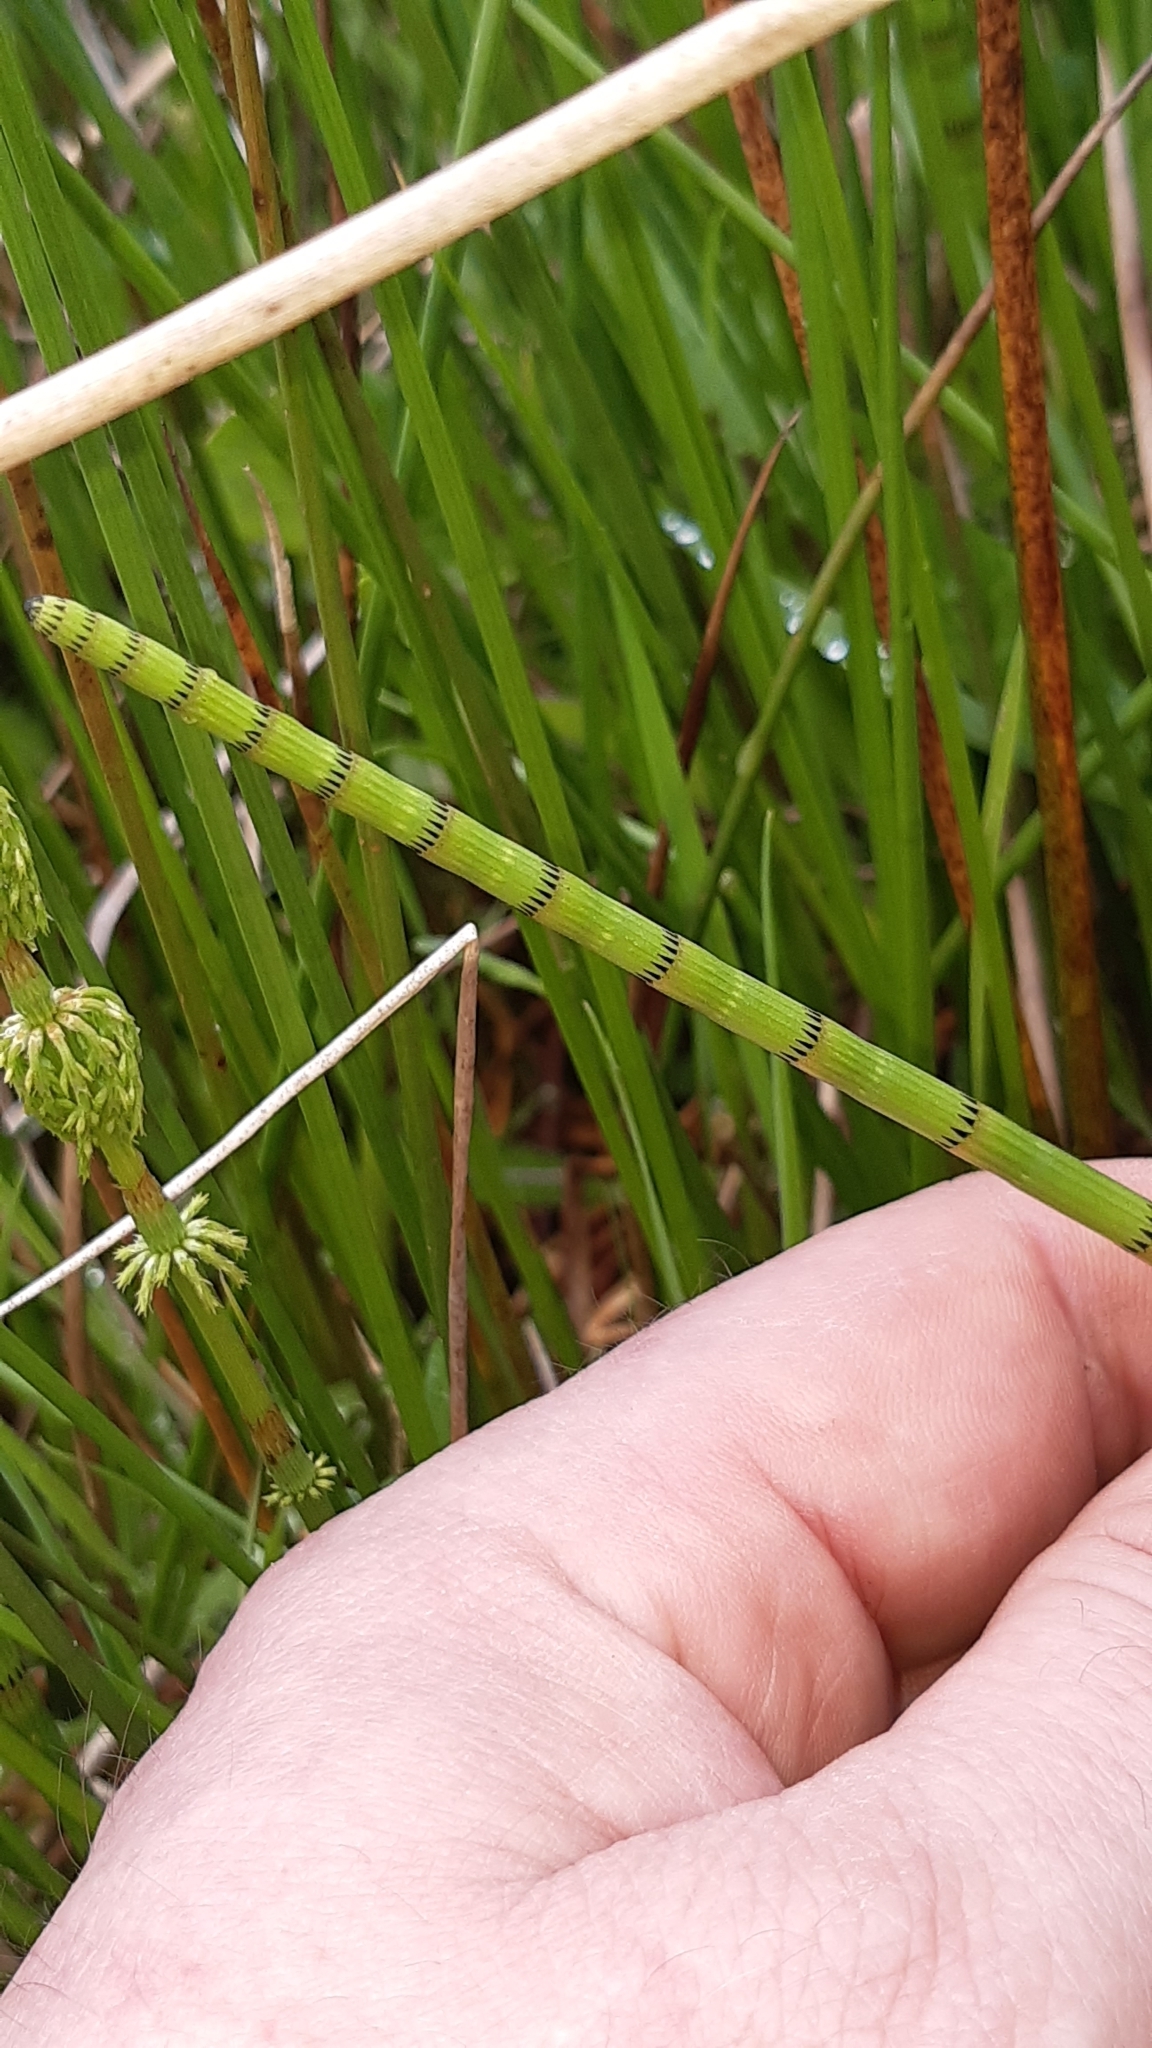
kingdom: Plantae
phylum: Tracheophyta
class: Polypodiopsida
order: Equisetales
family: Equisetaceae
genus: Equisetum
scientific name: Equisetum fluviatile
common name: Water horsetail
